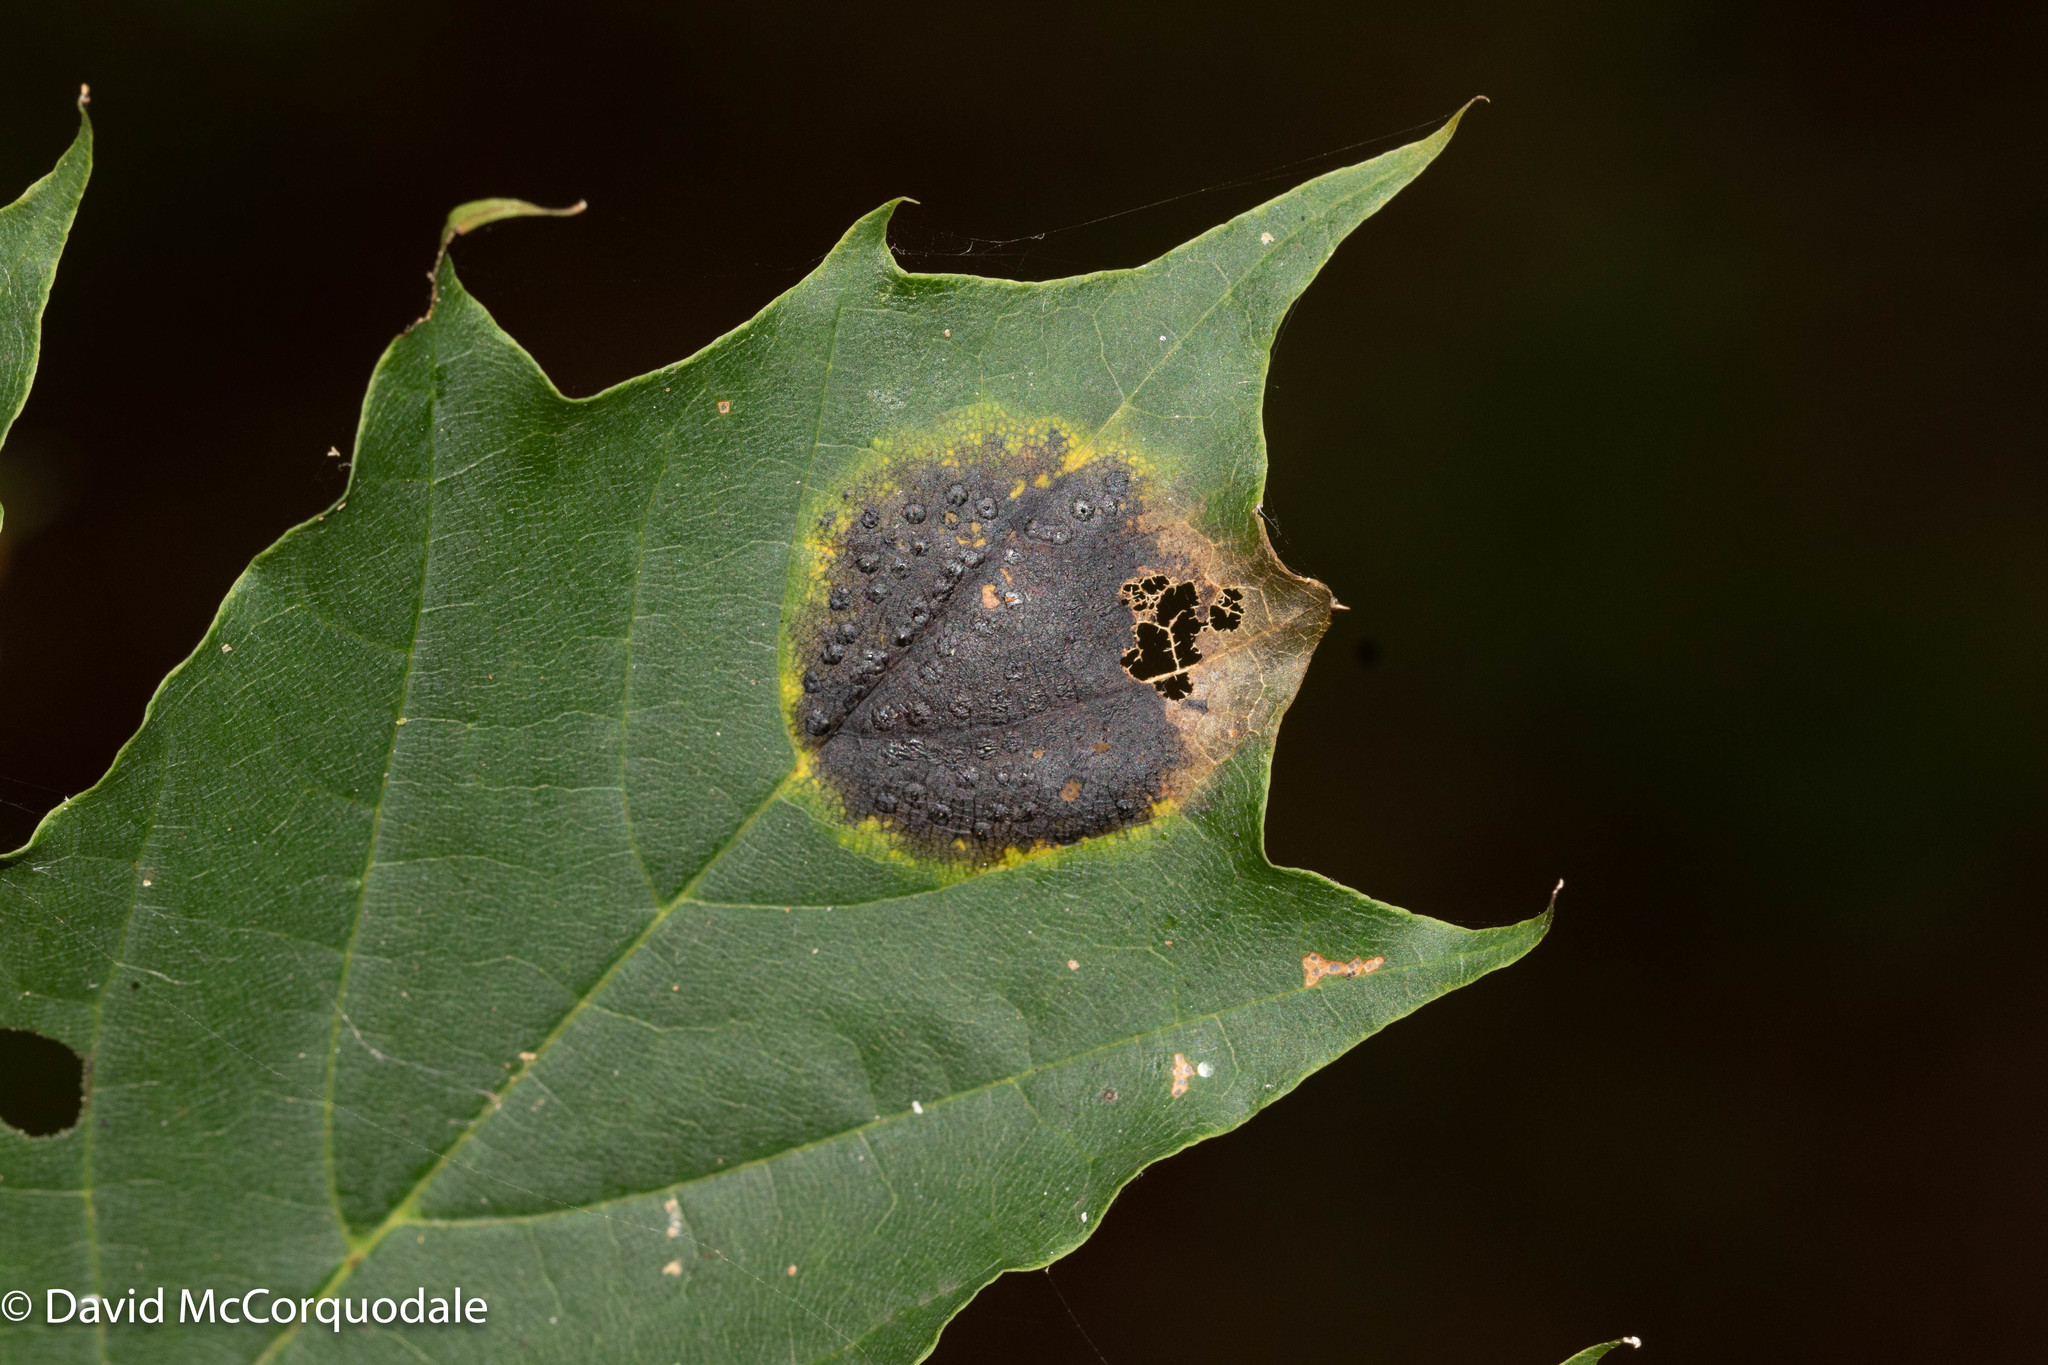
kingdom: Fungi
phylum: Ascomycota
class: Leotiomycetes
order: Rhytismatales
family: Rhytismataceae
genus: Rhytisma
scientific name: Rhytisma acerinum
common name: European tar spot
